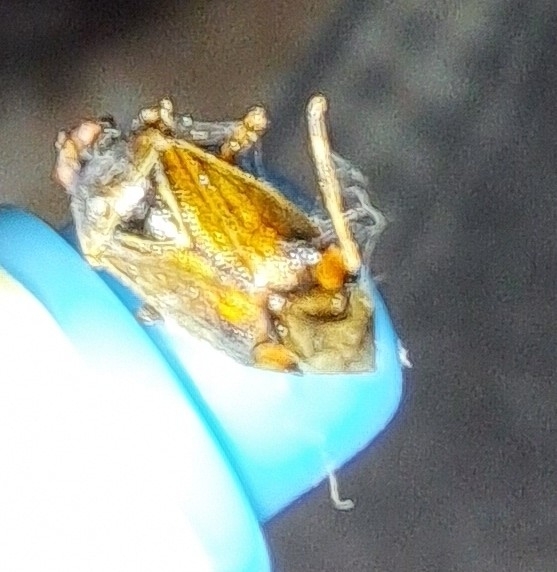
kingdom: Animalia
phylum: Arthropoda
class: Insecta
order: Hemiptera
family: Miridae
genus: Deraeocoris
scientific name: Deraeocoris flavilinea
